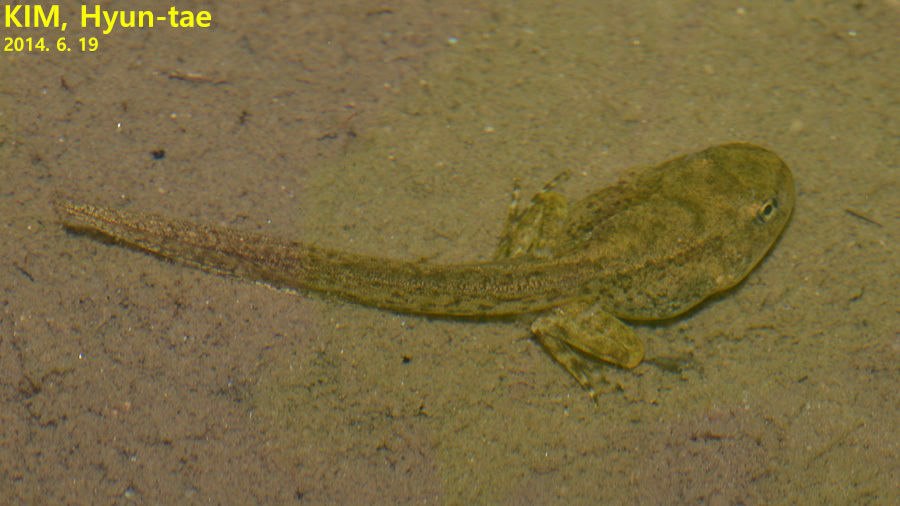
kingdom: Animalia
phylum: Chordata
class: Amphibia
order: Anura
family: Bombinatoridae
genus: Bombina
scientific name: Bombina orientalis
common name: Oriental firebelly toad
